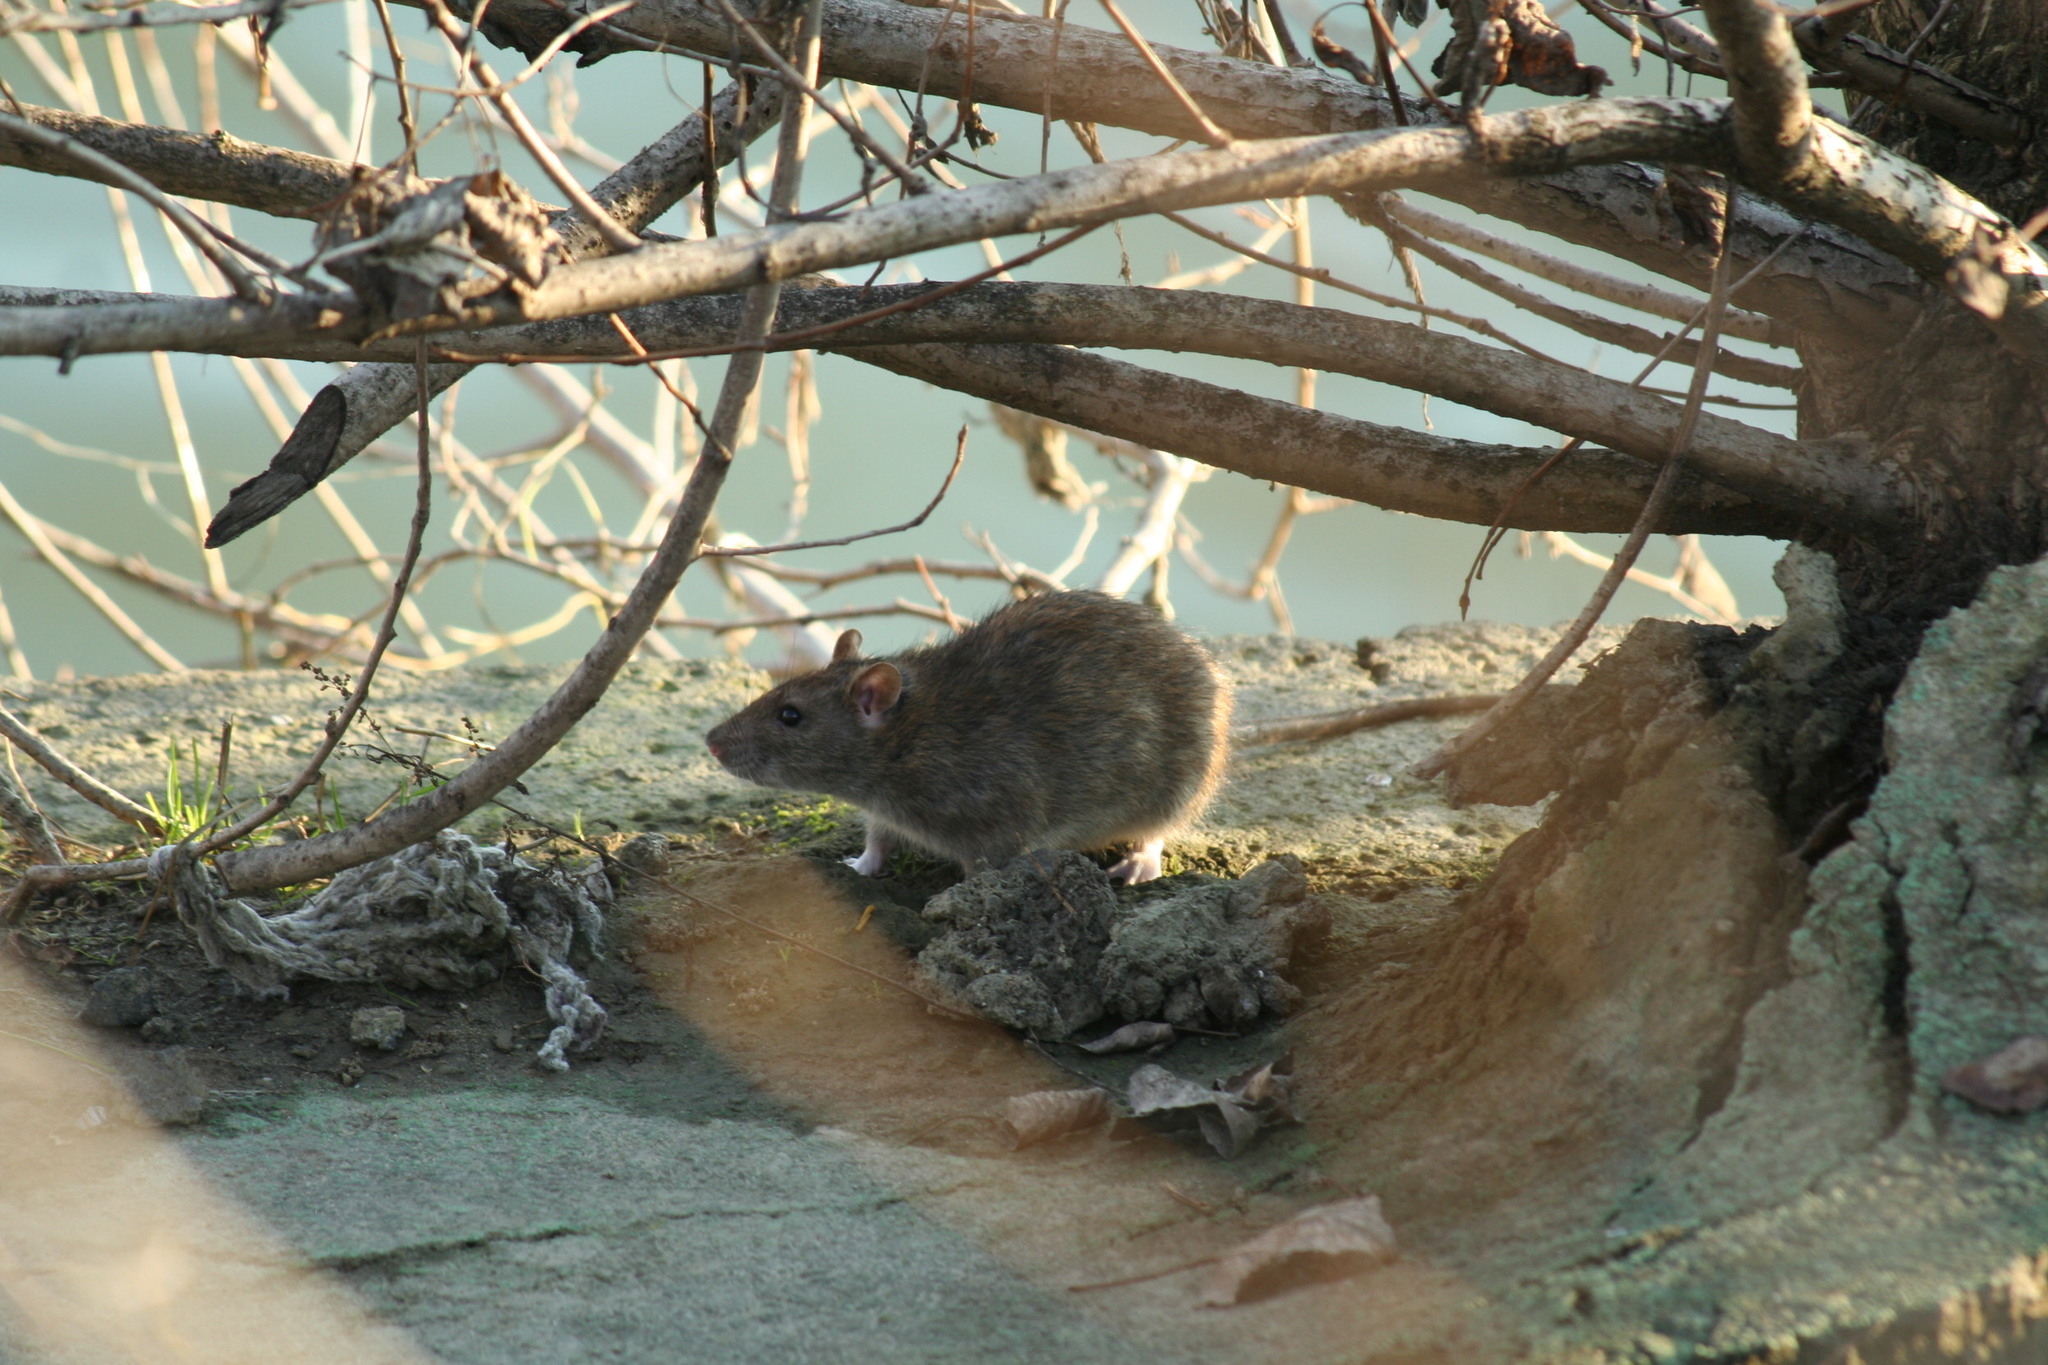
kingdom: Animalia
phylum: Chordata
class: Mammalia
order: Rodentia
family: Muridae
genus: Rattus
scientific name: Rattus norvegicus
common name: Brown rat
